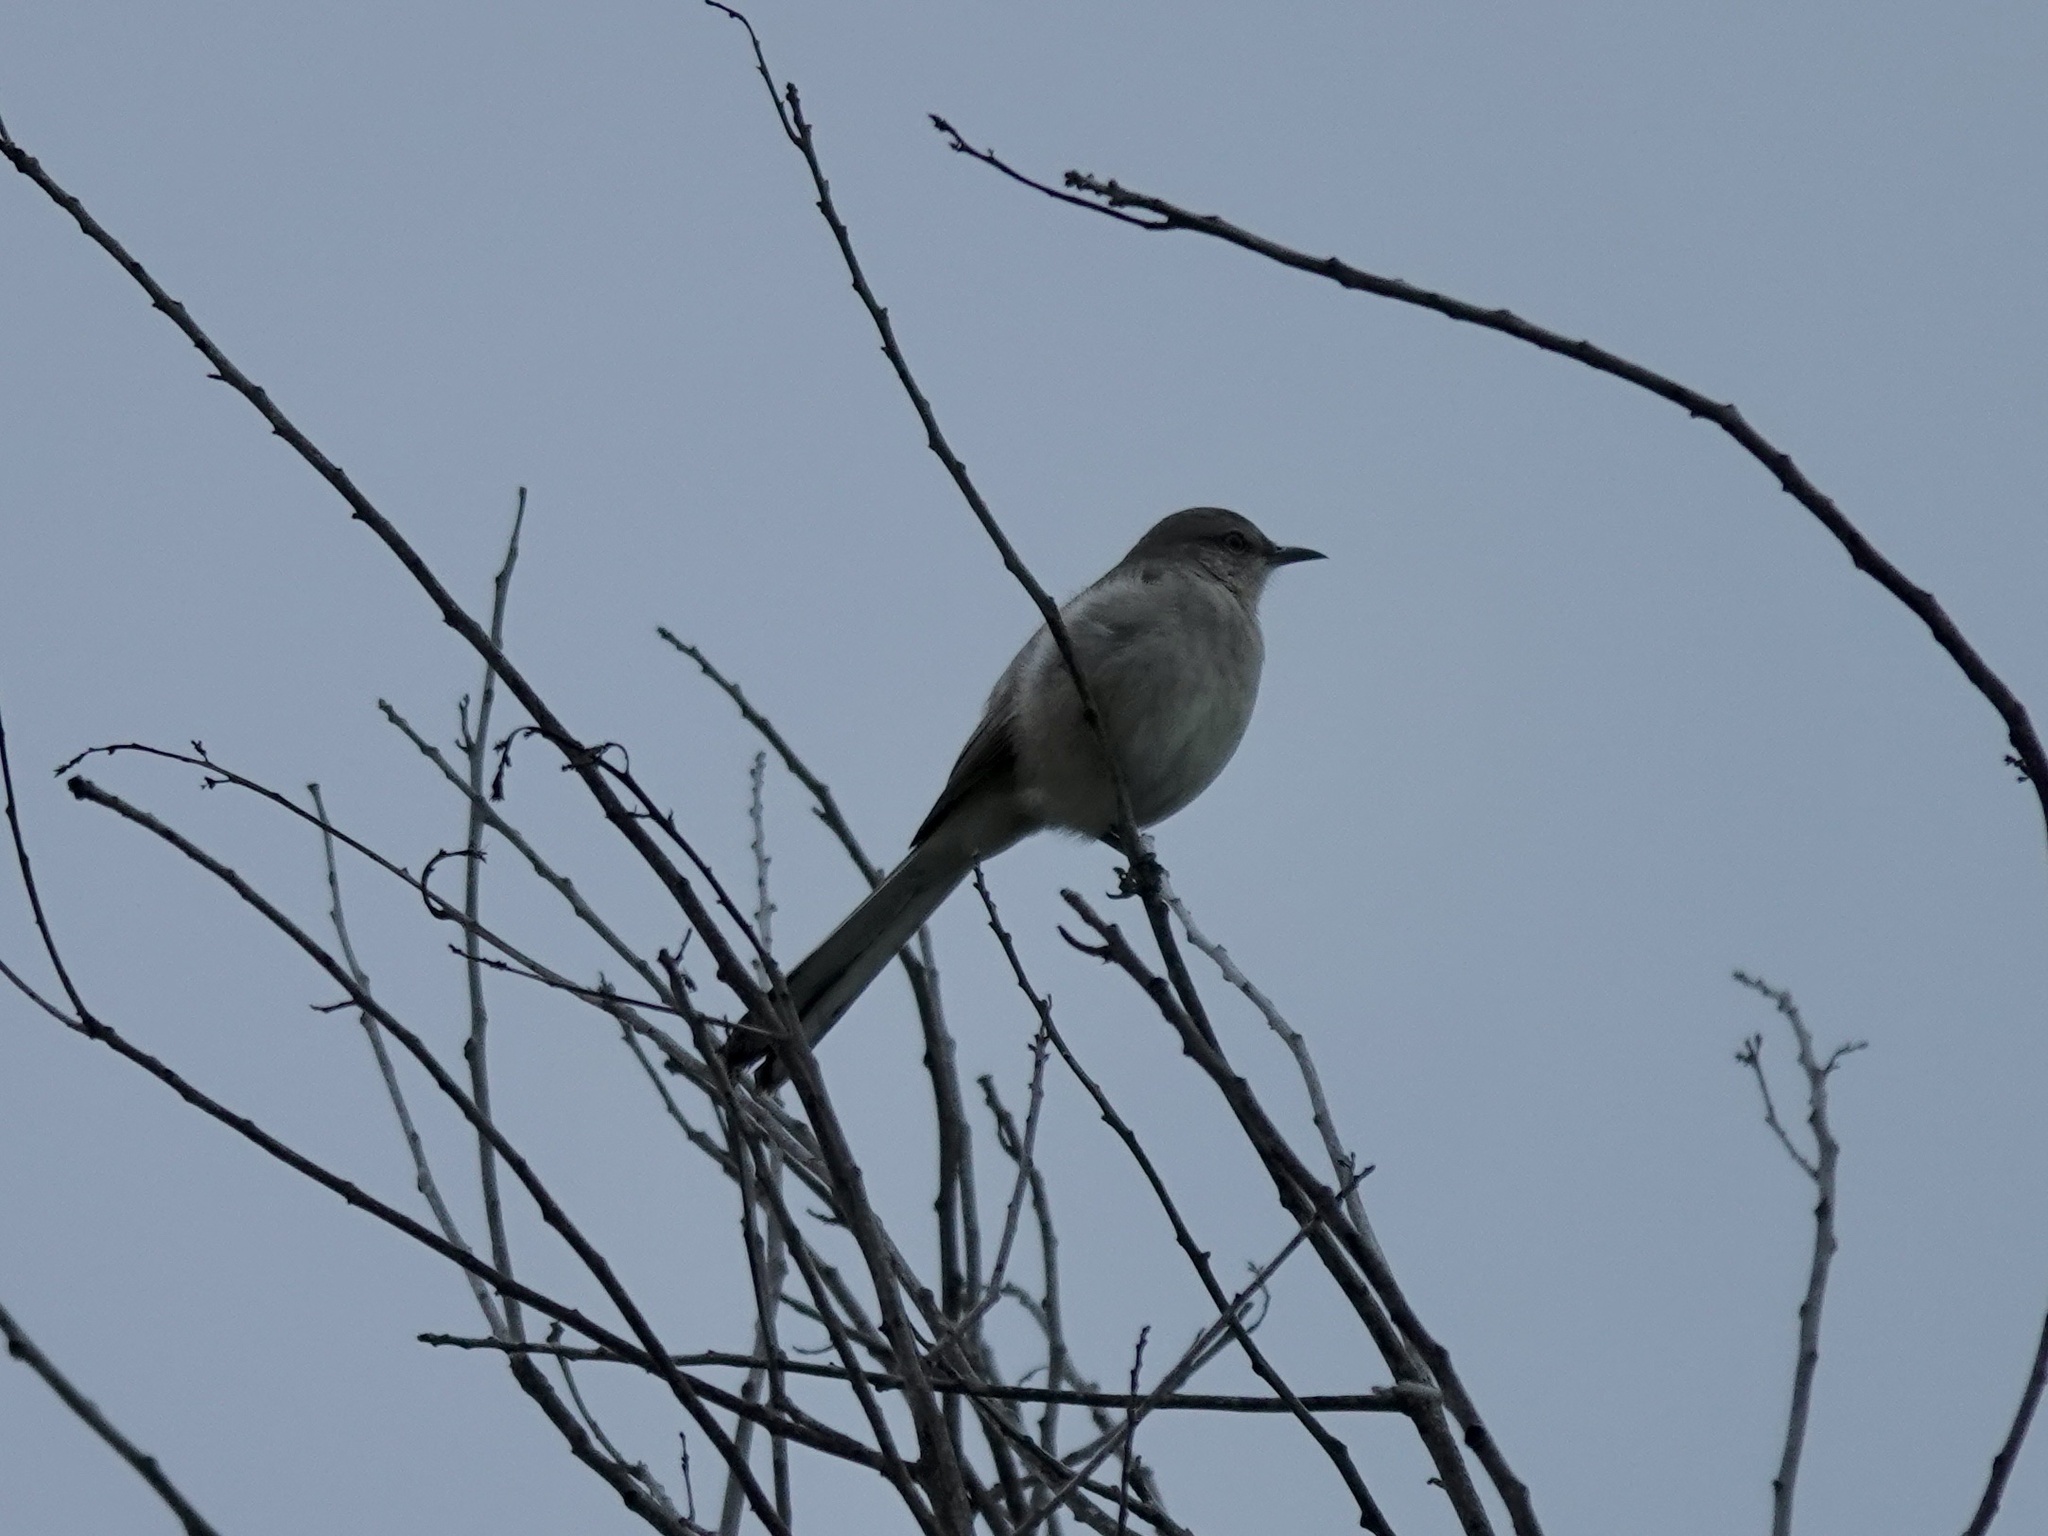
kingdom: Animalia
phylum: Chordata
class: Aves
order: Passeriformes
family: Mimidae
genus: Mimus
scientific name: Mimus polyglottos
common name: Northern mockingbird
